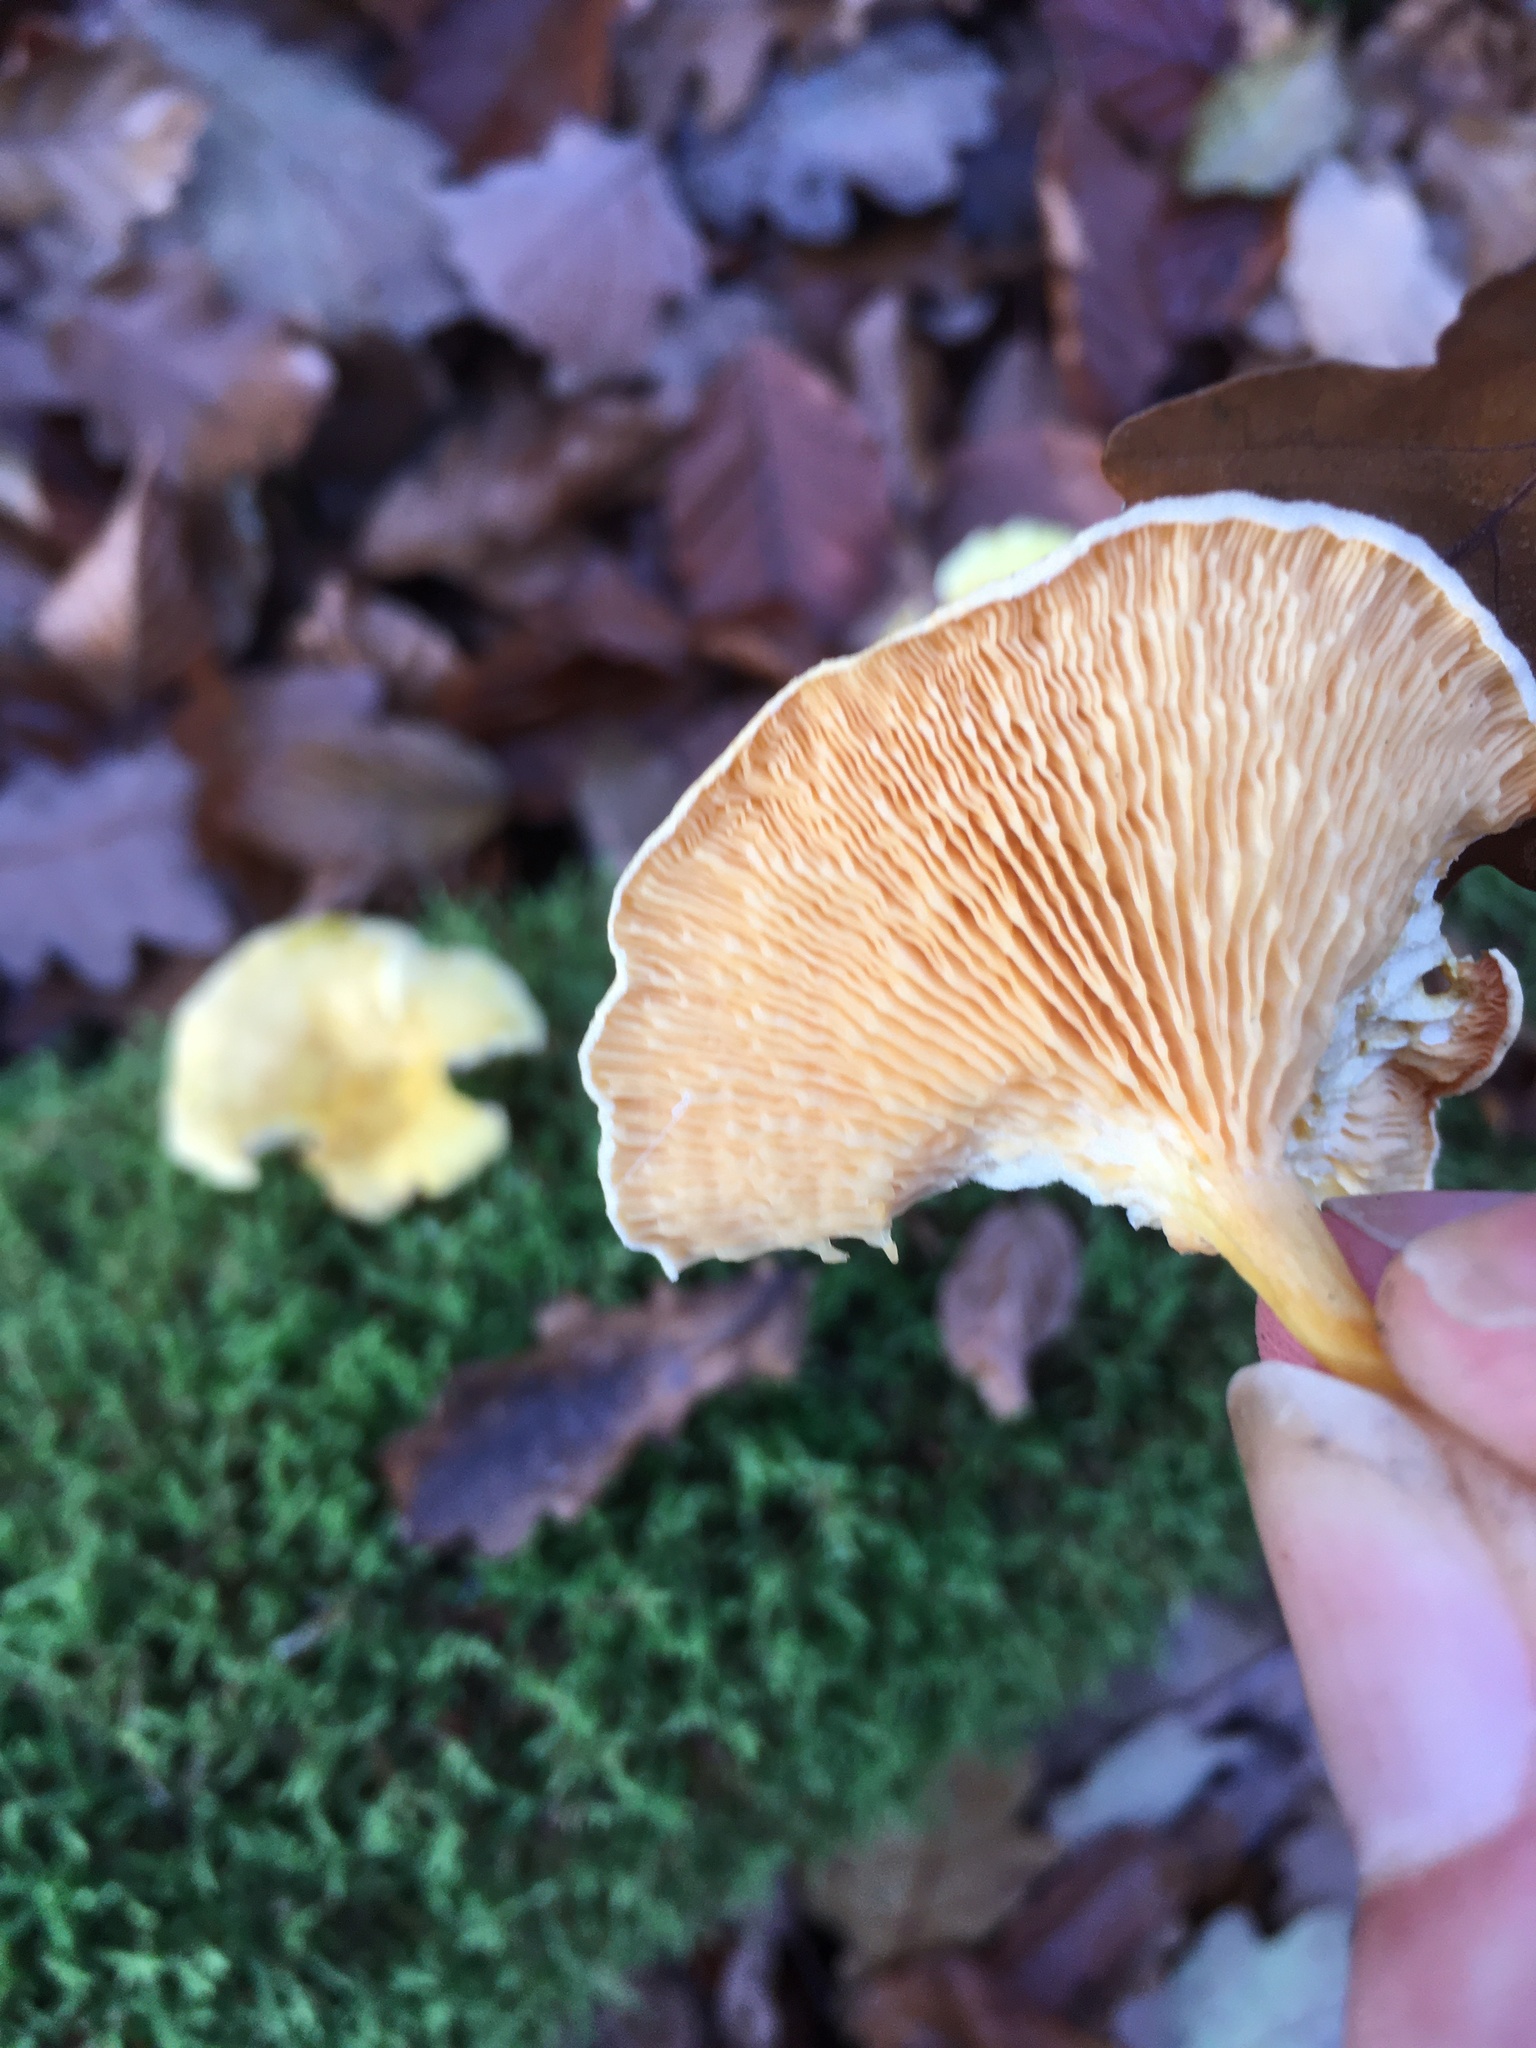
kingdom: Fungi
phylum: Basidiomycota
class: Agaricomycetes
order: Boletales
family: Hygrophoropsidaceae
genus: Hygrophoropsis
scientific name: Hygrophoropsis aurantiaca
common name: False chanterelle
